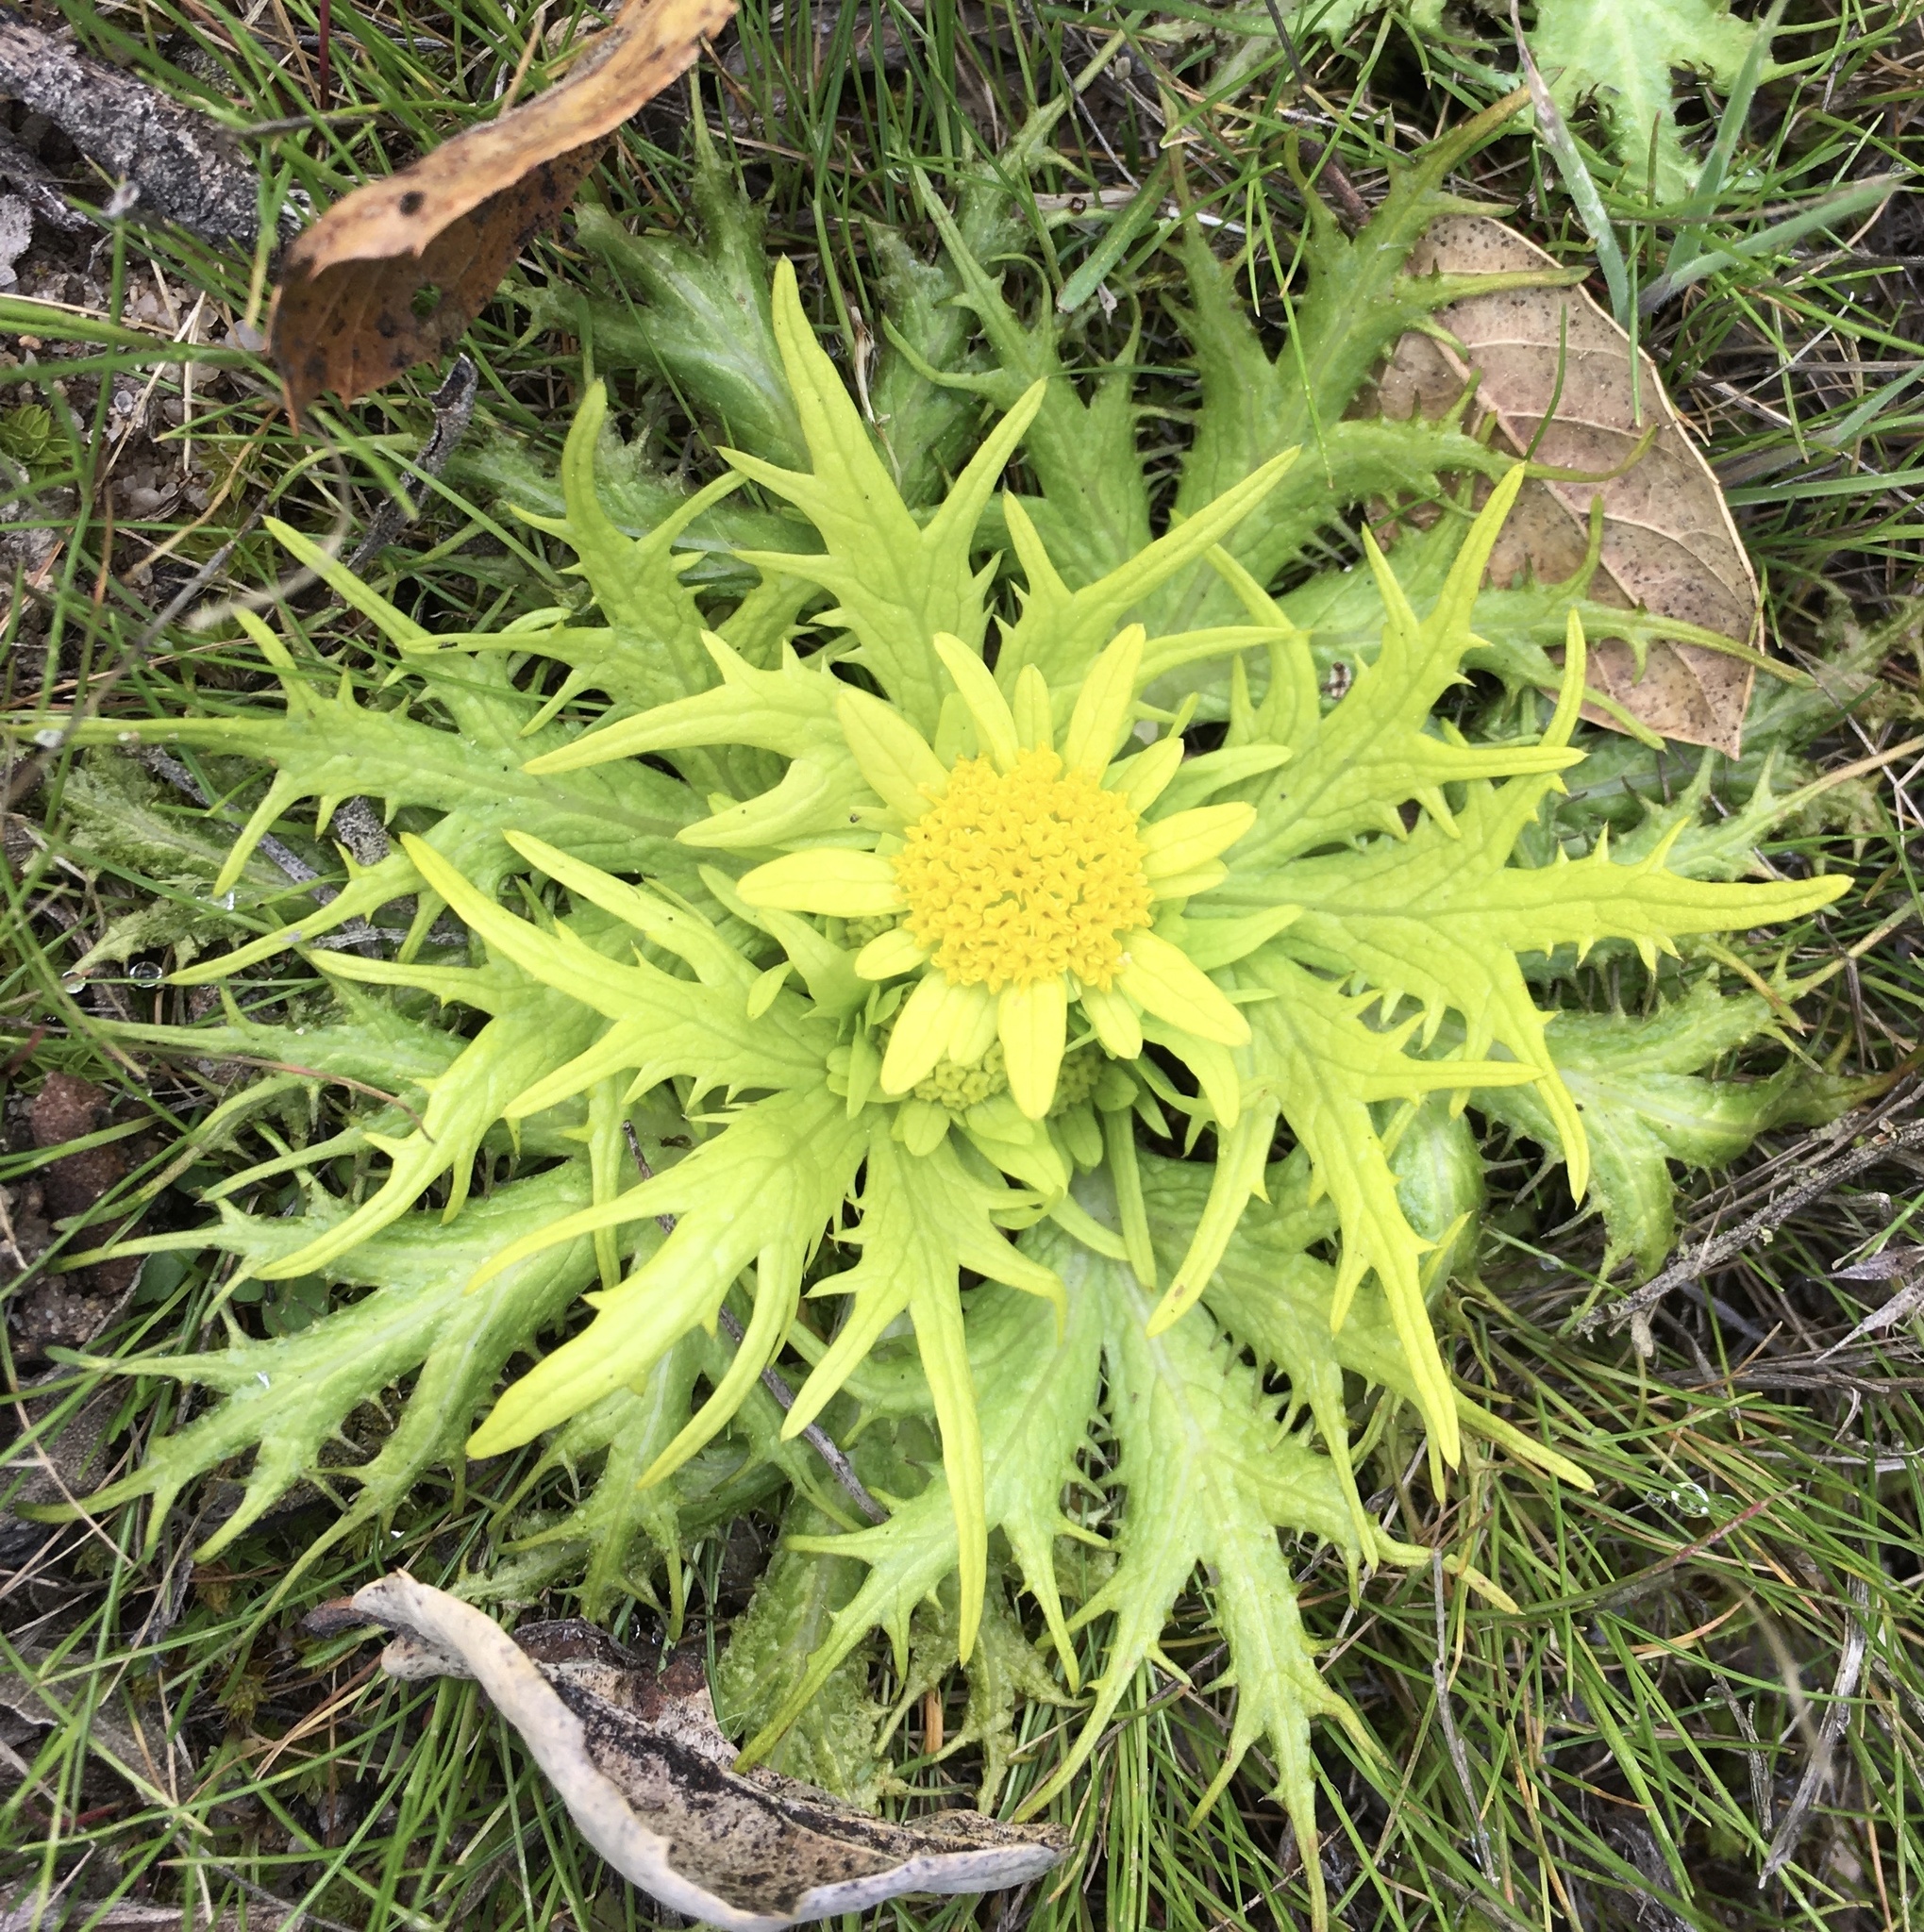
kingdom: Plantae
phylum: Tracheophyta
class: Magnoliopsida
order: Apiales
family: Apiaceae
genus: Sanicula
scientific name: Sanicula arctopoides
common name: Footsteps-of-spring
